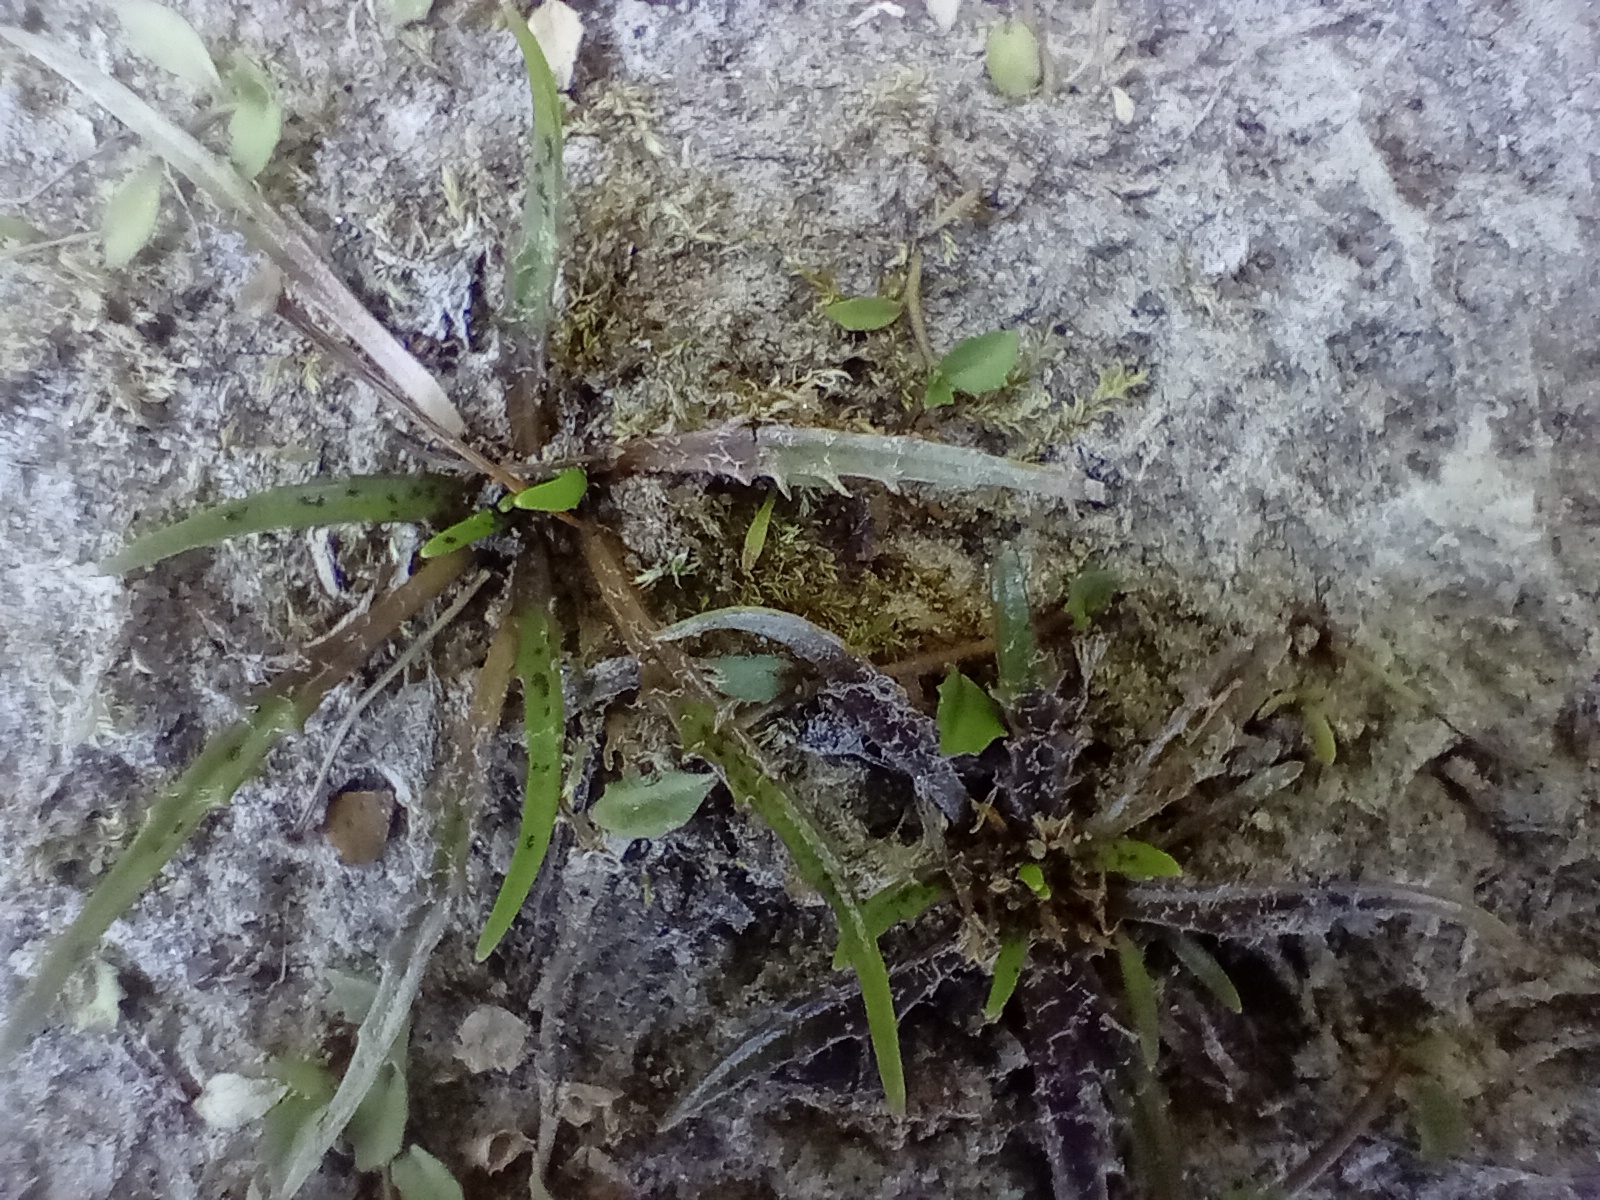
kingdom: Plantae
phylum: Tracheophyta
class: Magnoliopsida
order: Lamiales
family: Plantaginaceae
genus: Plantago
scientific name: Plantago triandra
